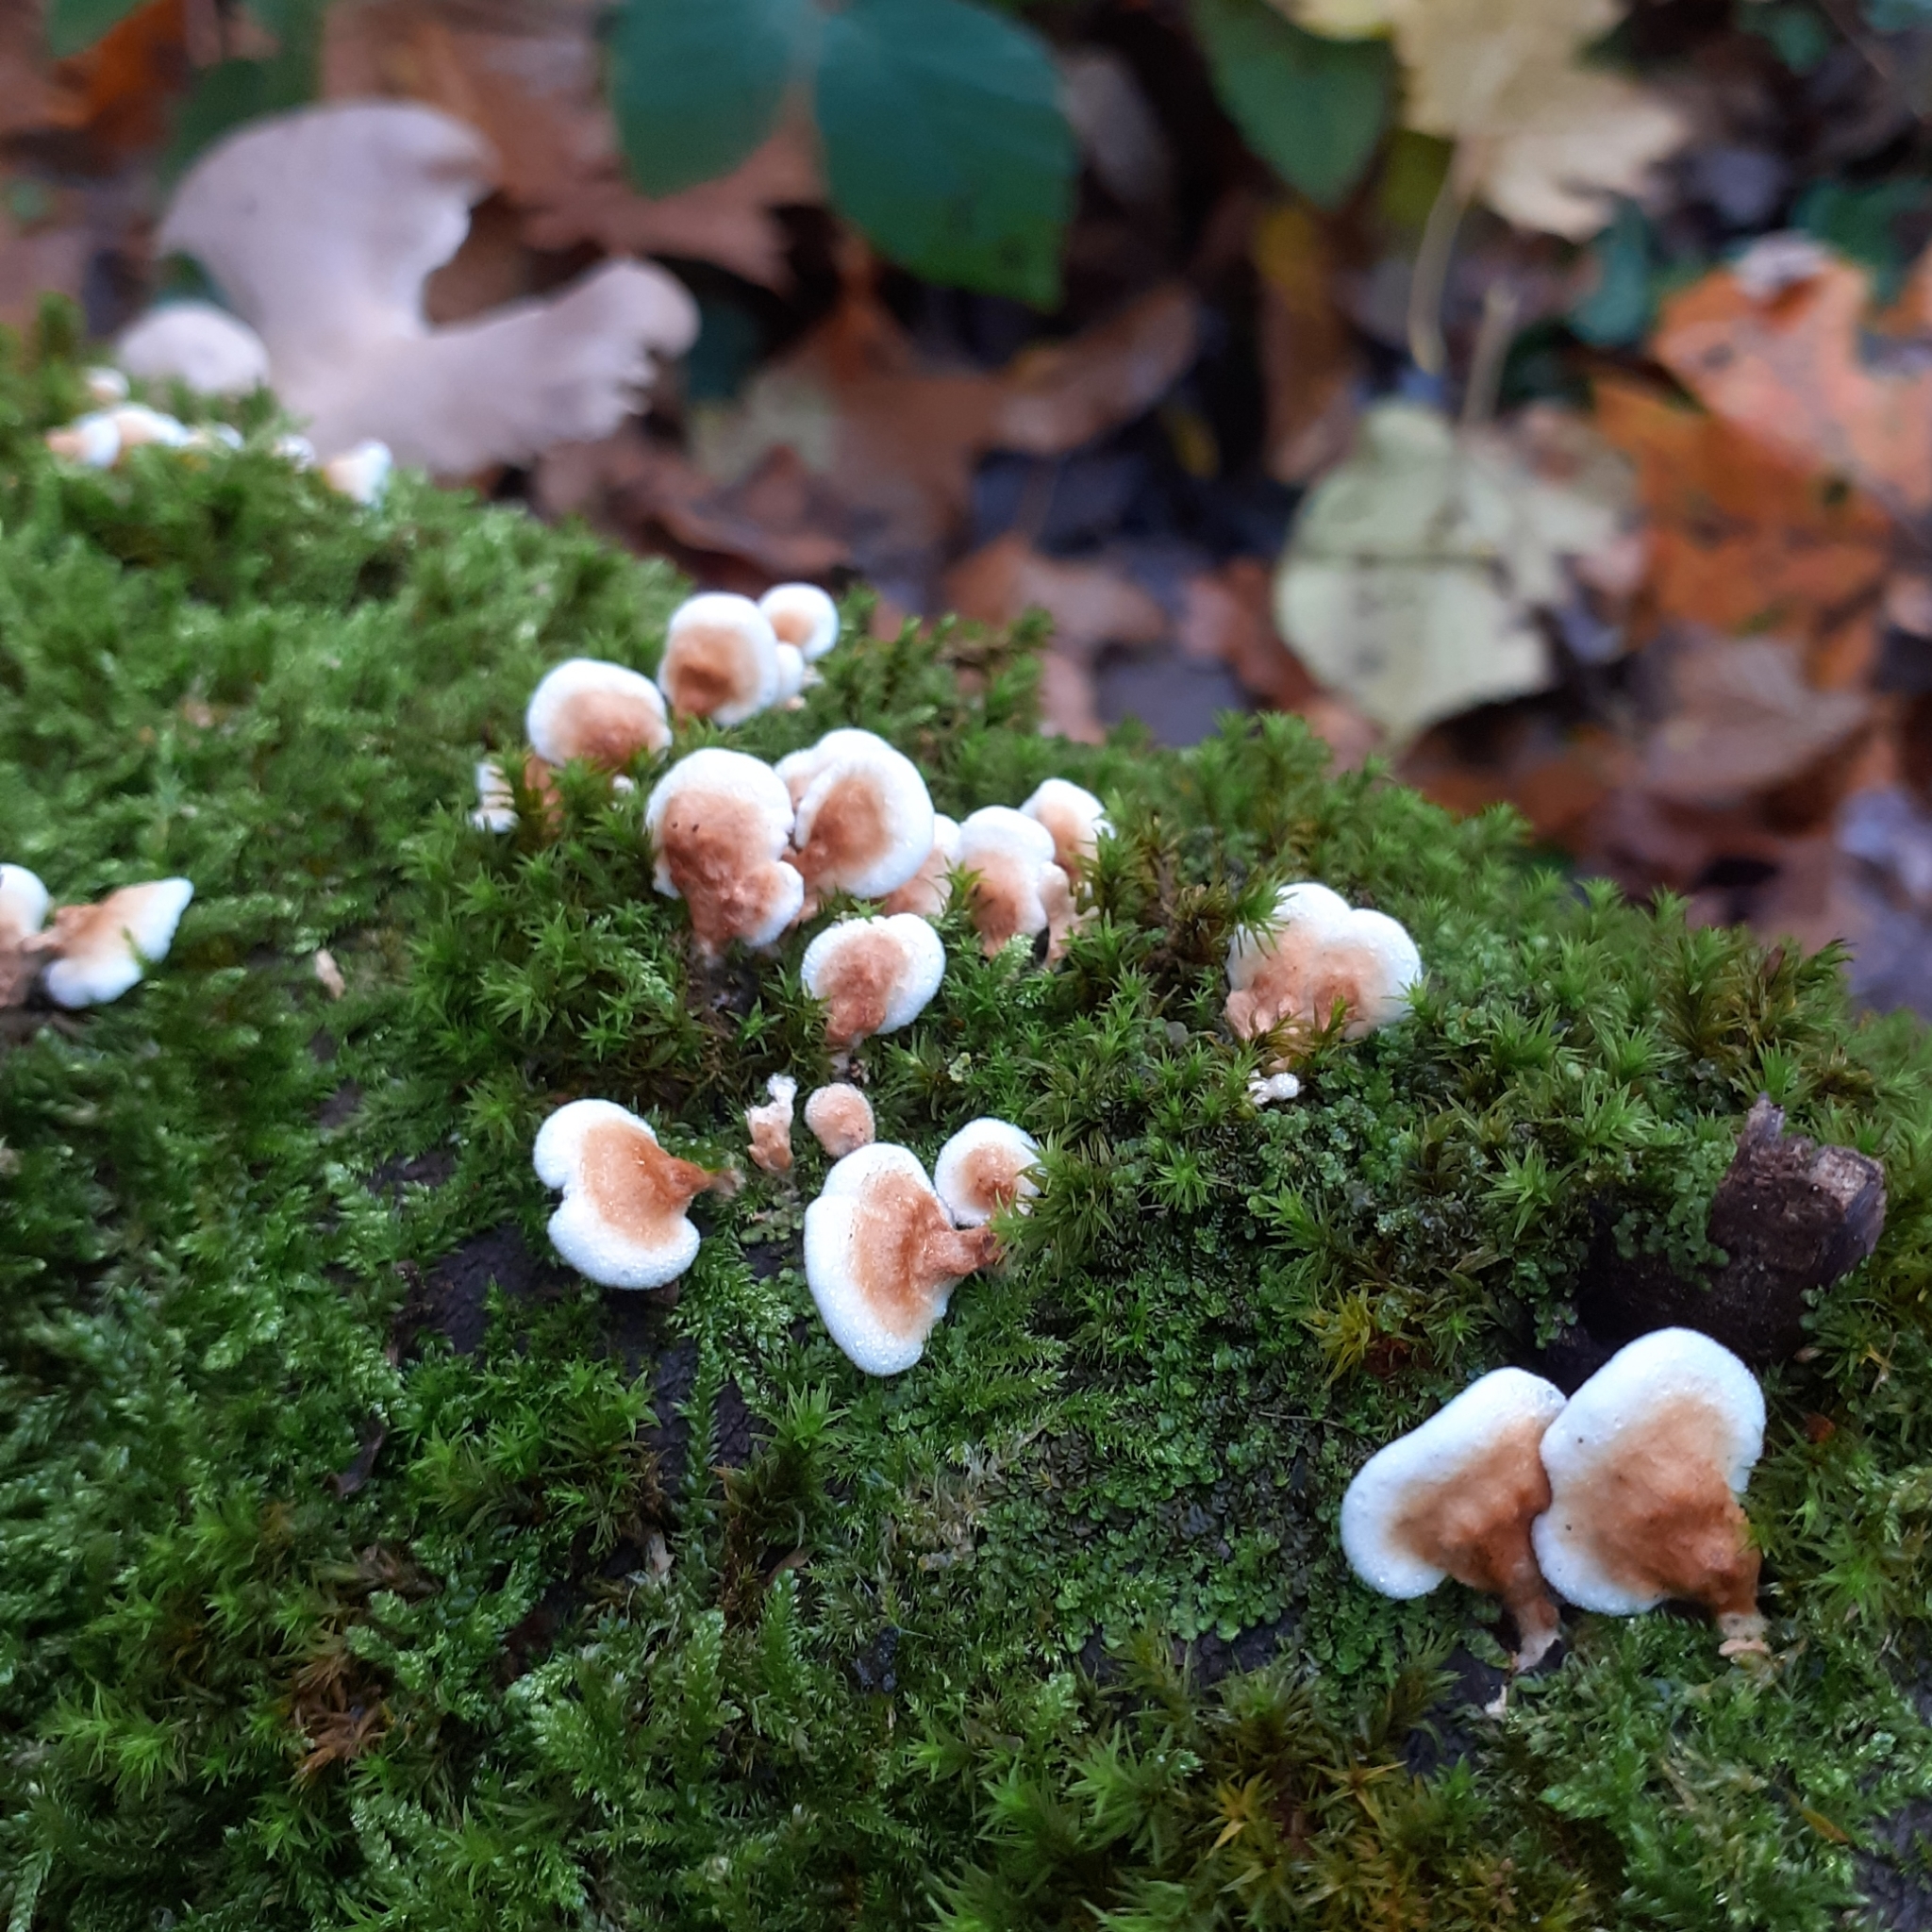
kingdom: Fungi
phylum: Basidiomycota
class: Agaricomycetes
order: Amylocorticiales
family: Amylocorticiaceae
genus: Plicaturopsis
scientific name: Plicaturopsis crispa
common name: Crimped gill
